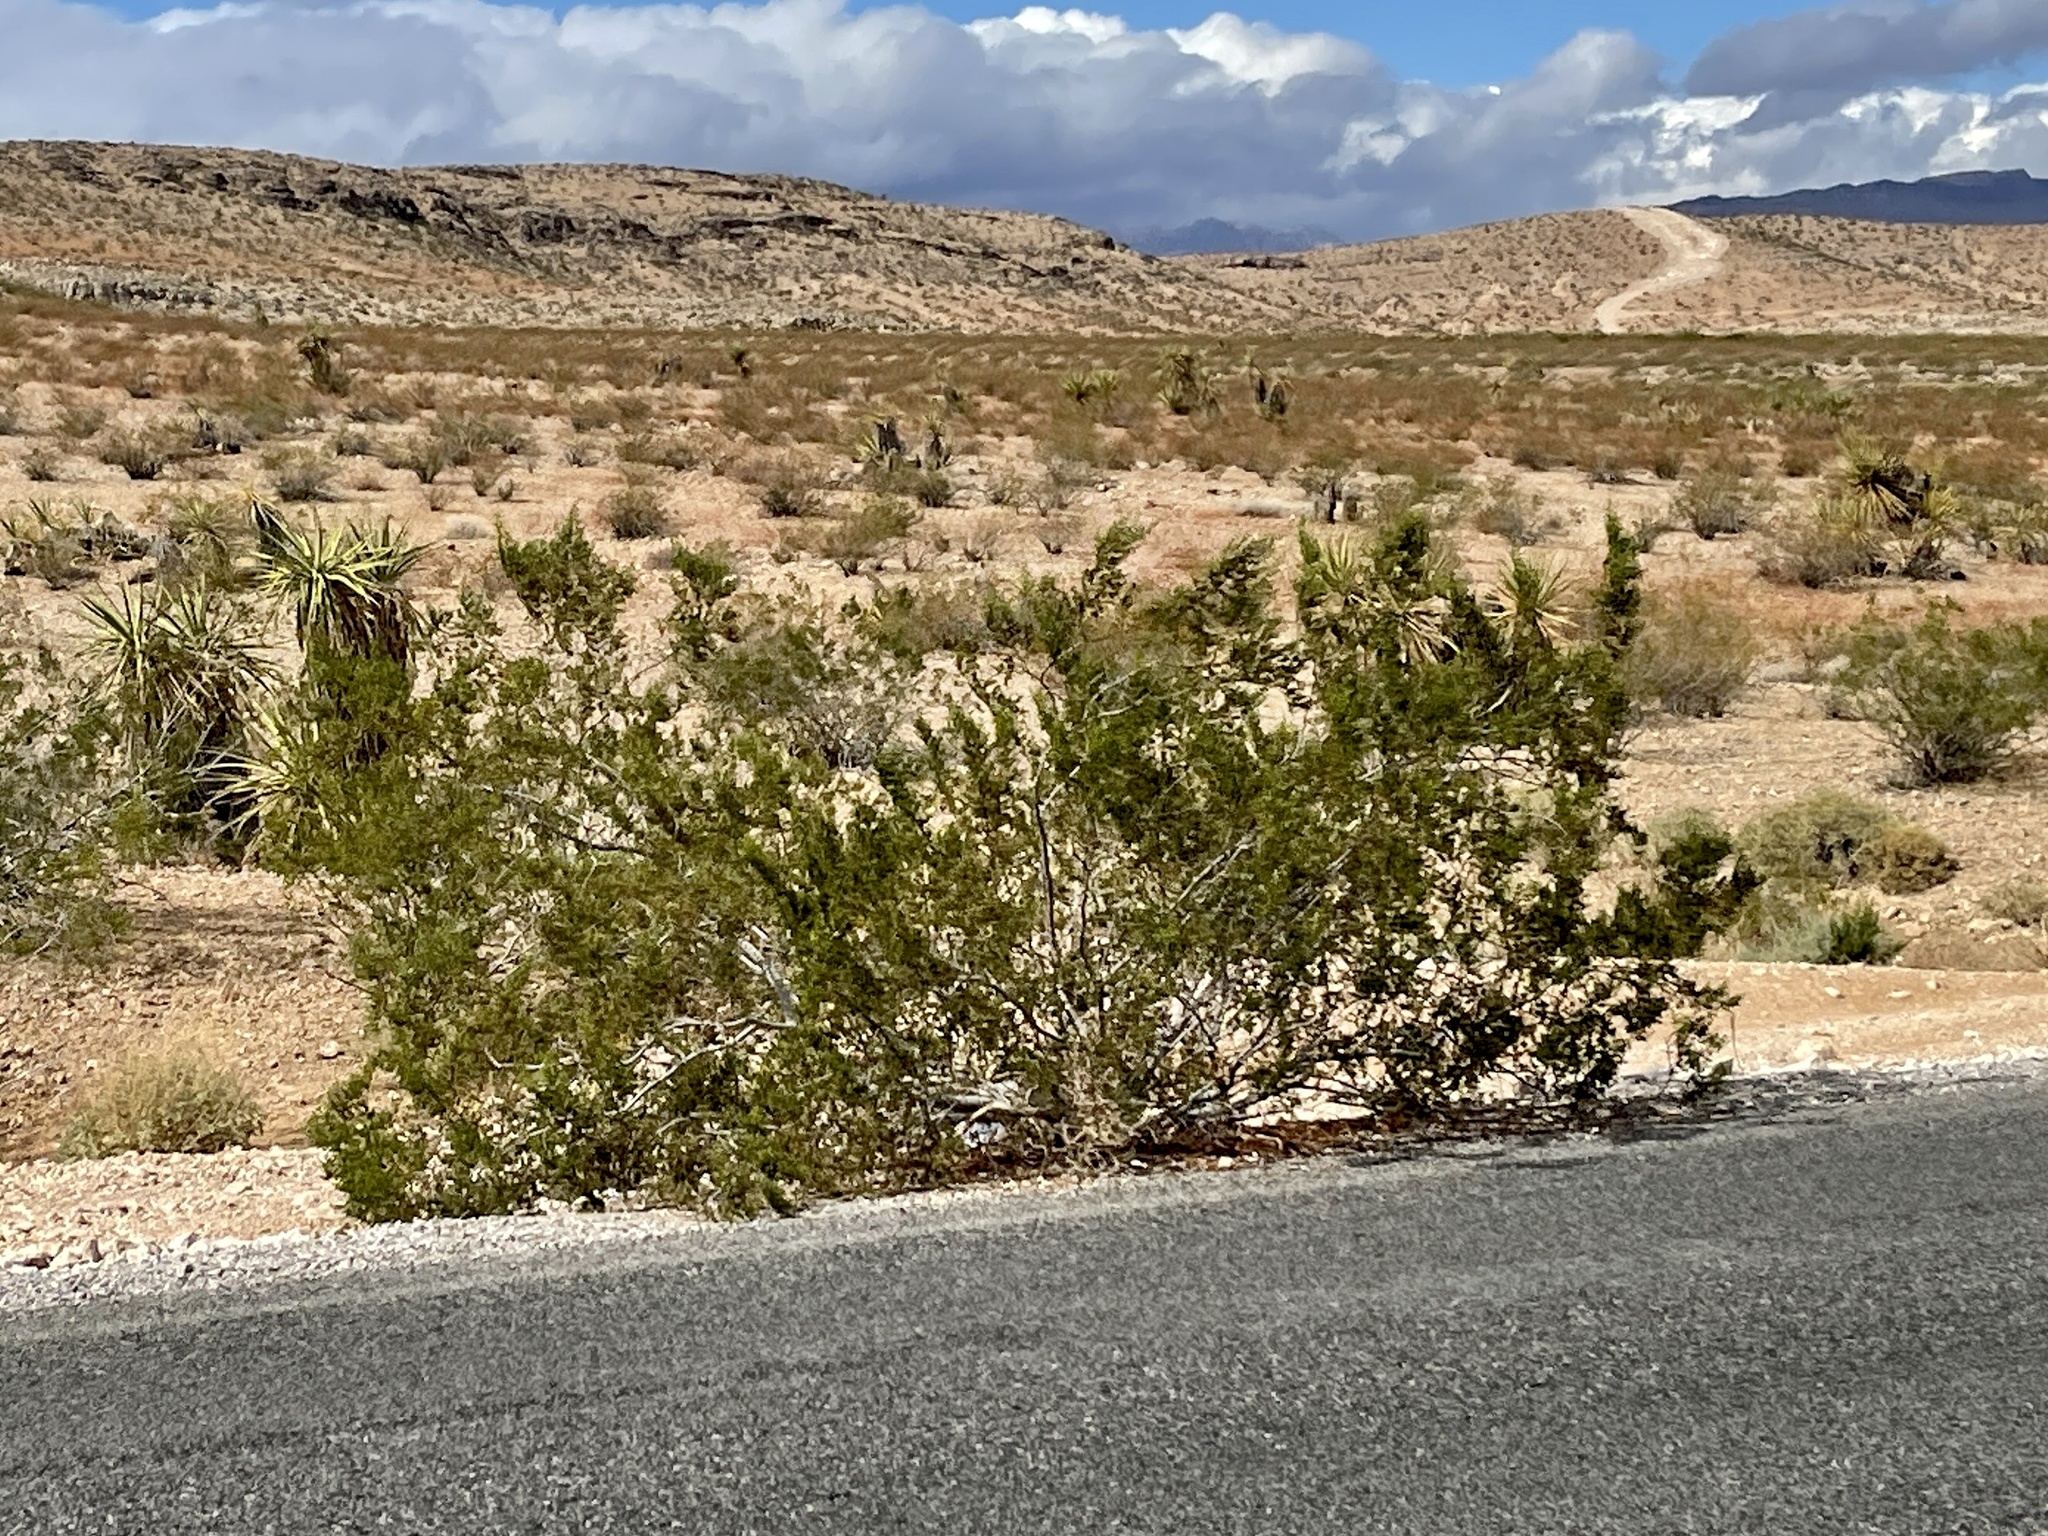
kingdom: Plantae
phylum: Tracheophyta
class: Magnoliopsida
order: Zygophyllales
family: Zygophyllaceae
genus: Larrea
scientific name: Larrea tridentata
